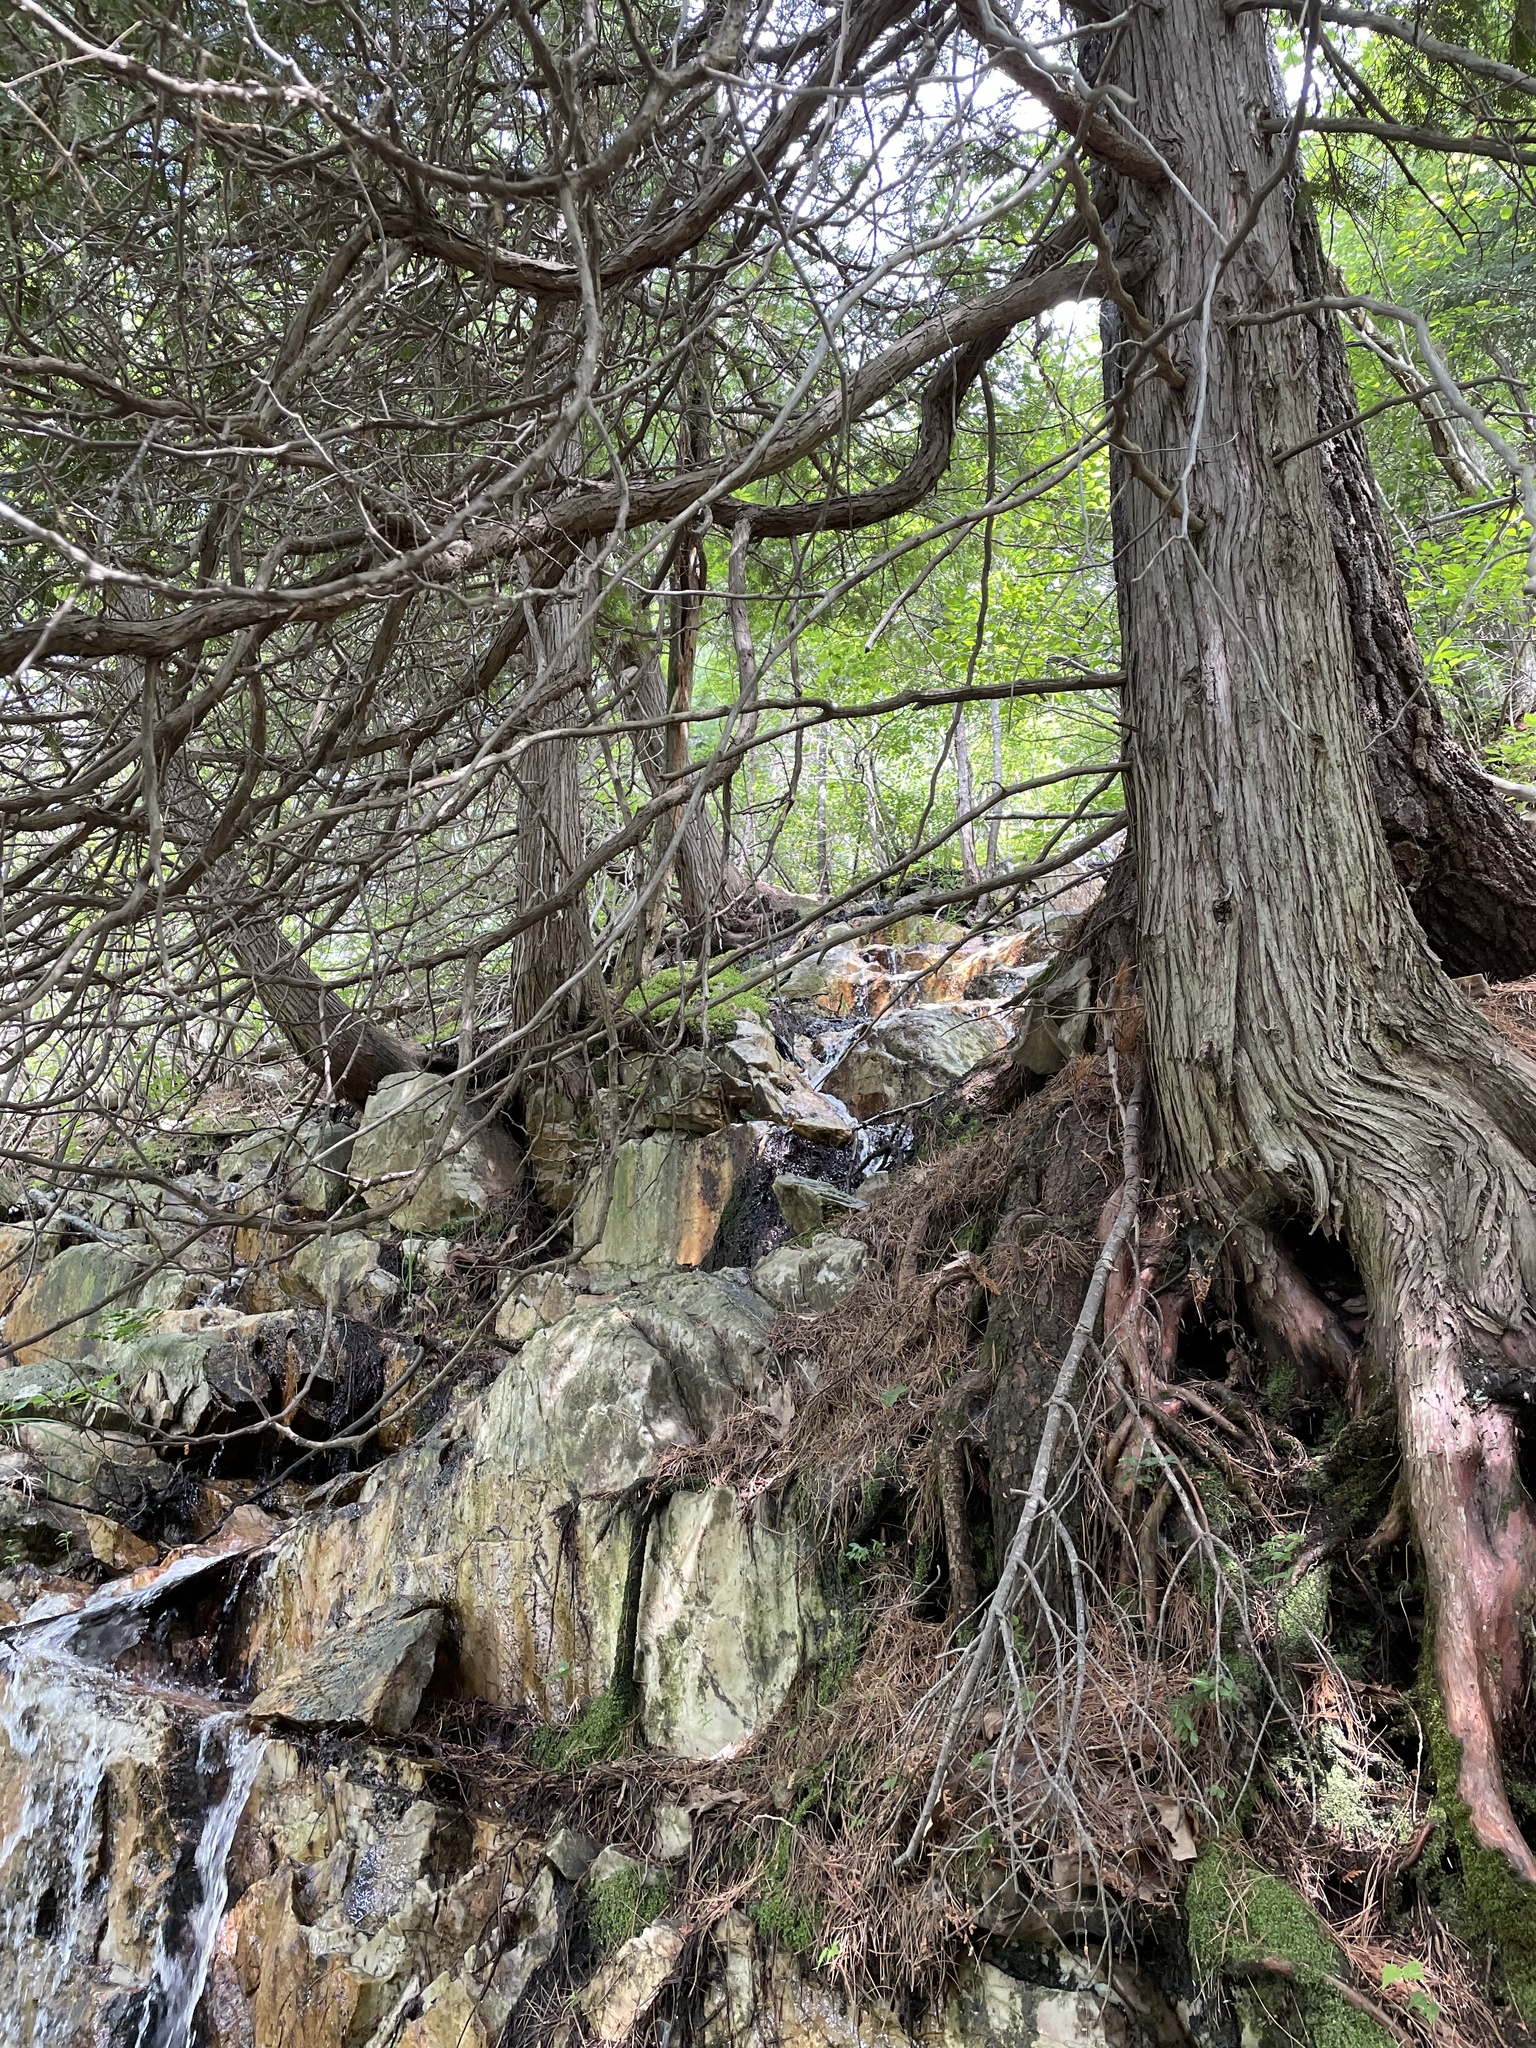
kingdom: Plantae
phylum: Tracheophyta
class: Pinopsida
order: Pinales
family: Cupressaceae
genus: Thuja
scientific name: Thuja occidentalis
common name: Northern white-cedar
